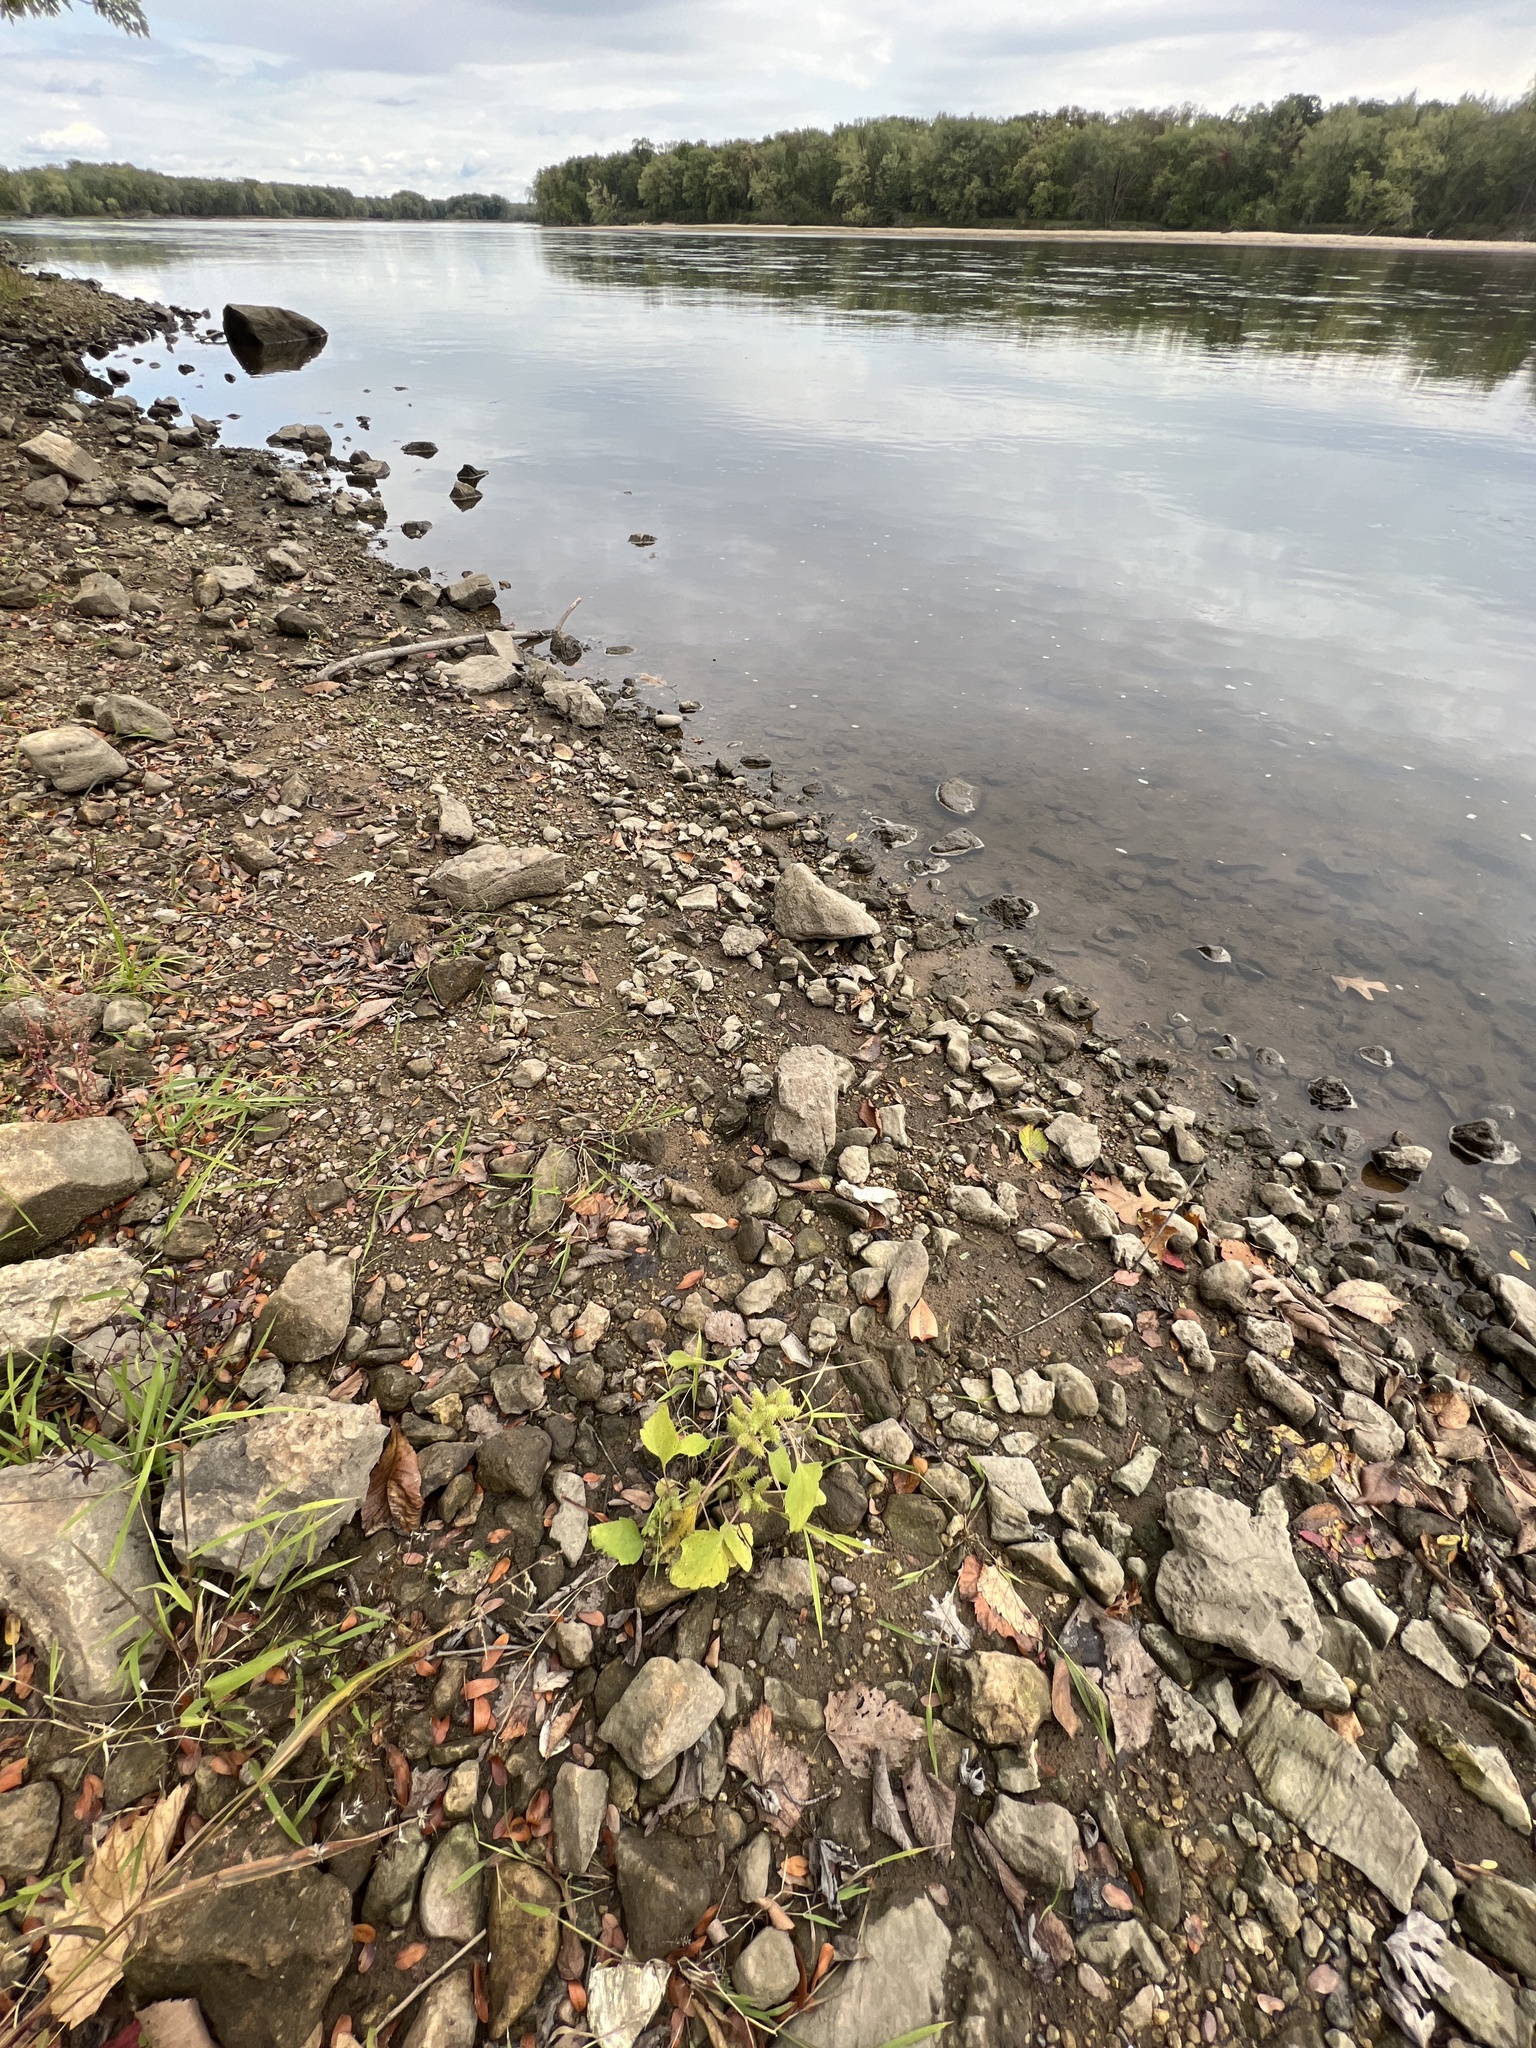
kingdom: Plantae
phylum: Tracheophyta
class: Magnoliopsida
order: Asterales
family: Asteraceae
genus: Xanthium
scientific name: Xanthium strumarium
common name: Rough cocklebur
